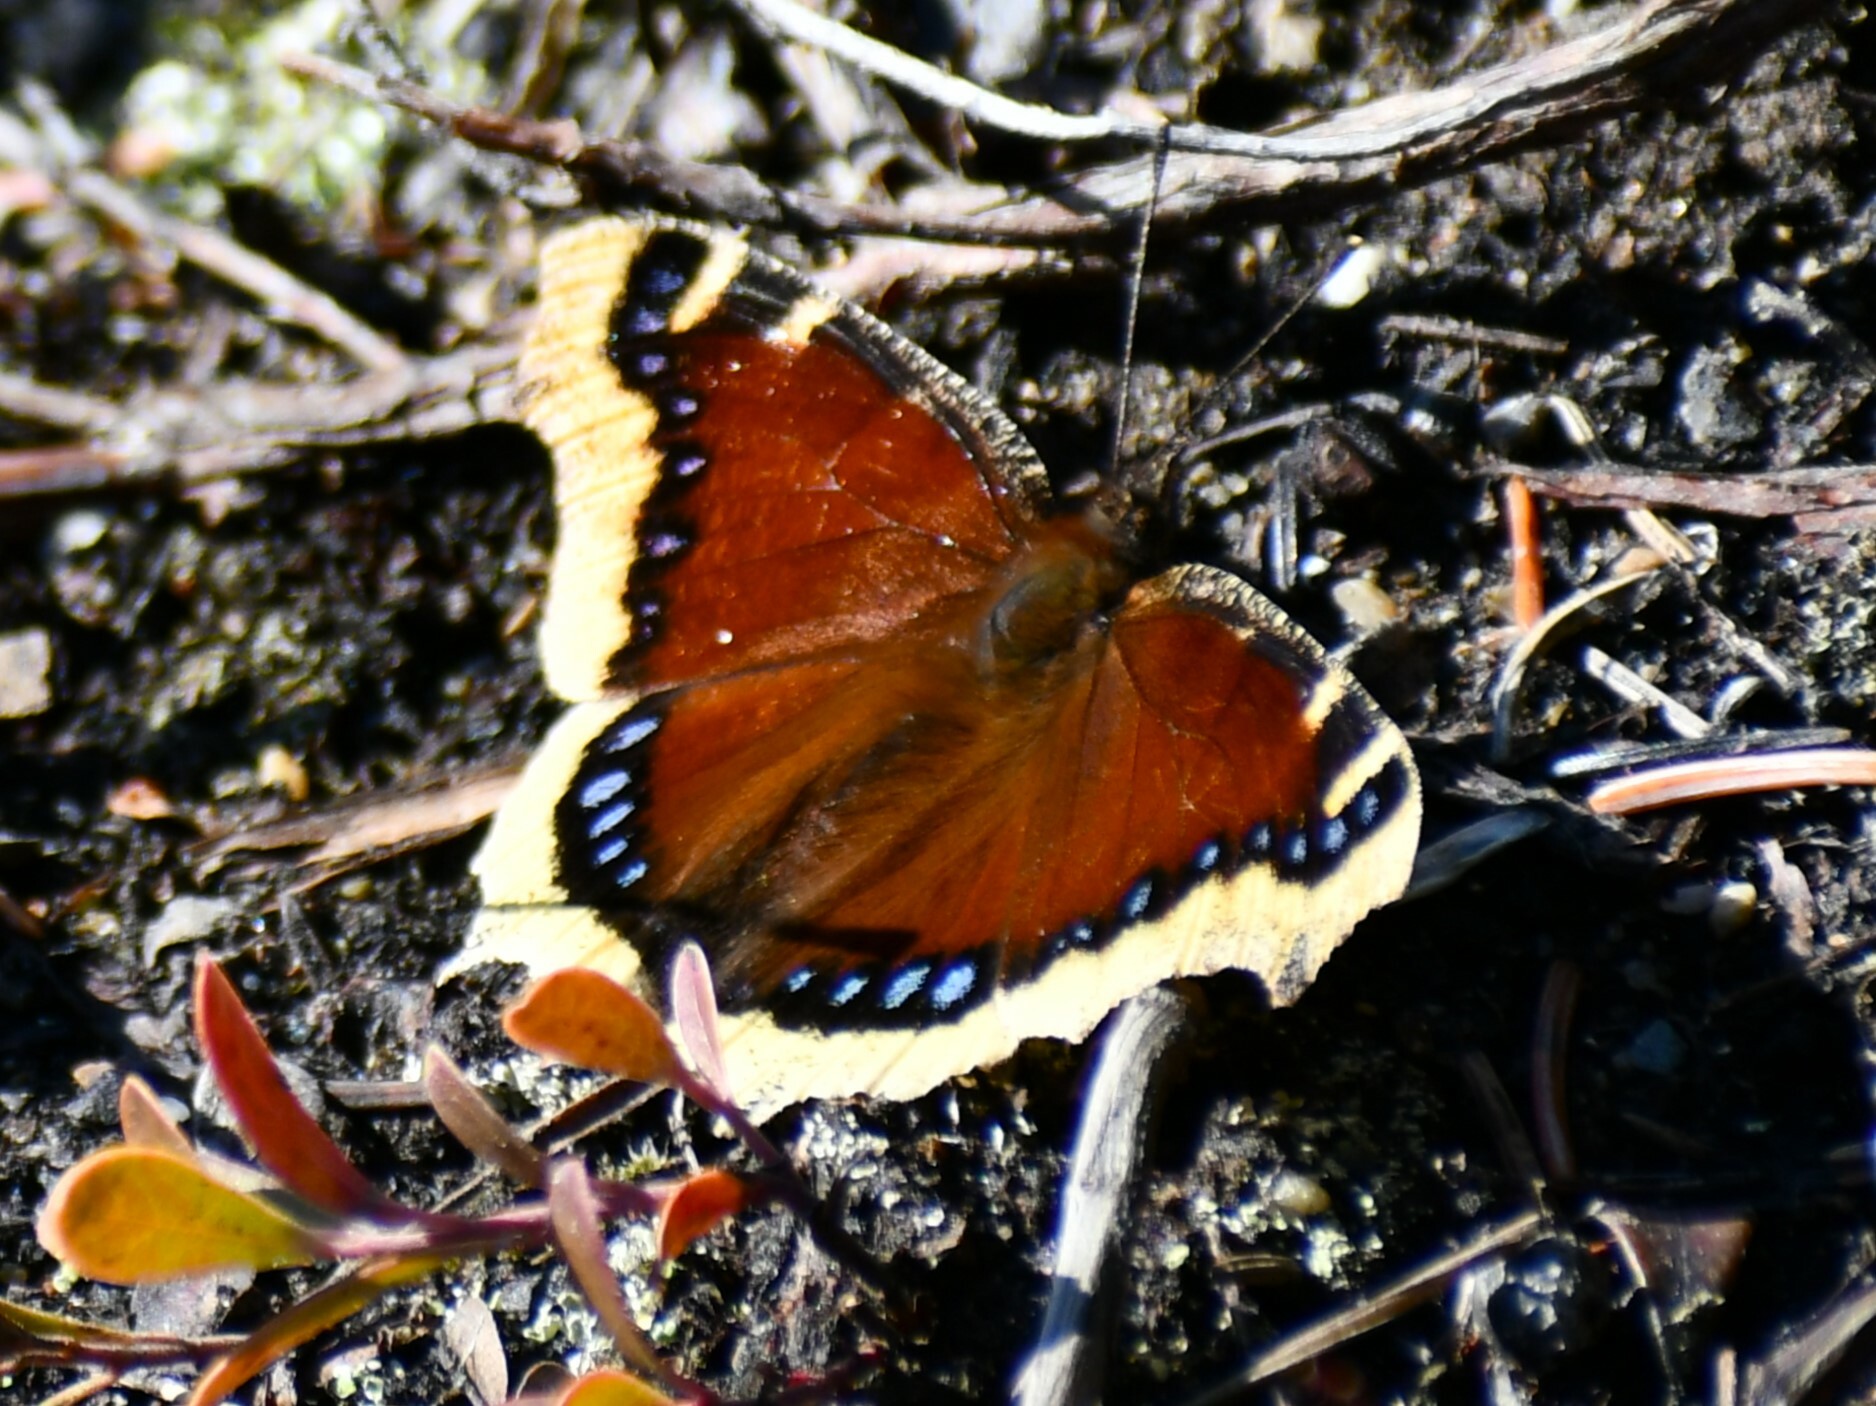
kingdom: Animalia
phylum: Arthropoda
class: Insecta
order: Lepidoptera
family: Nymphalidae
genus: Nymphalis
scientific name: Nymphalis antiopa
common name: Camberwell beauty
